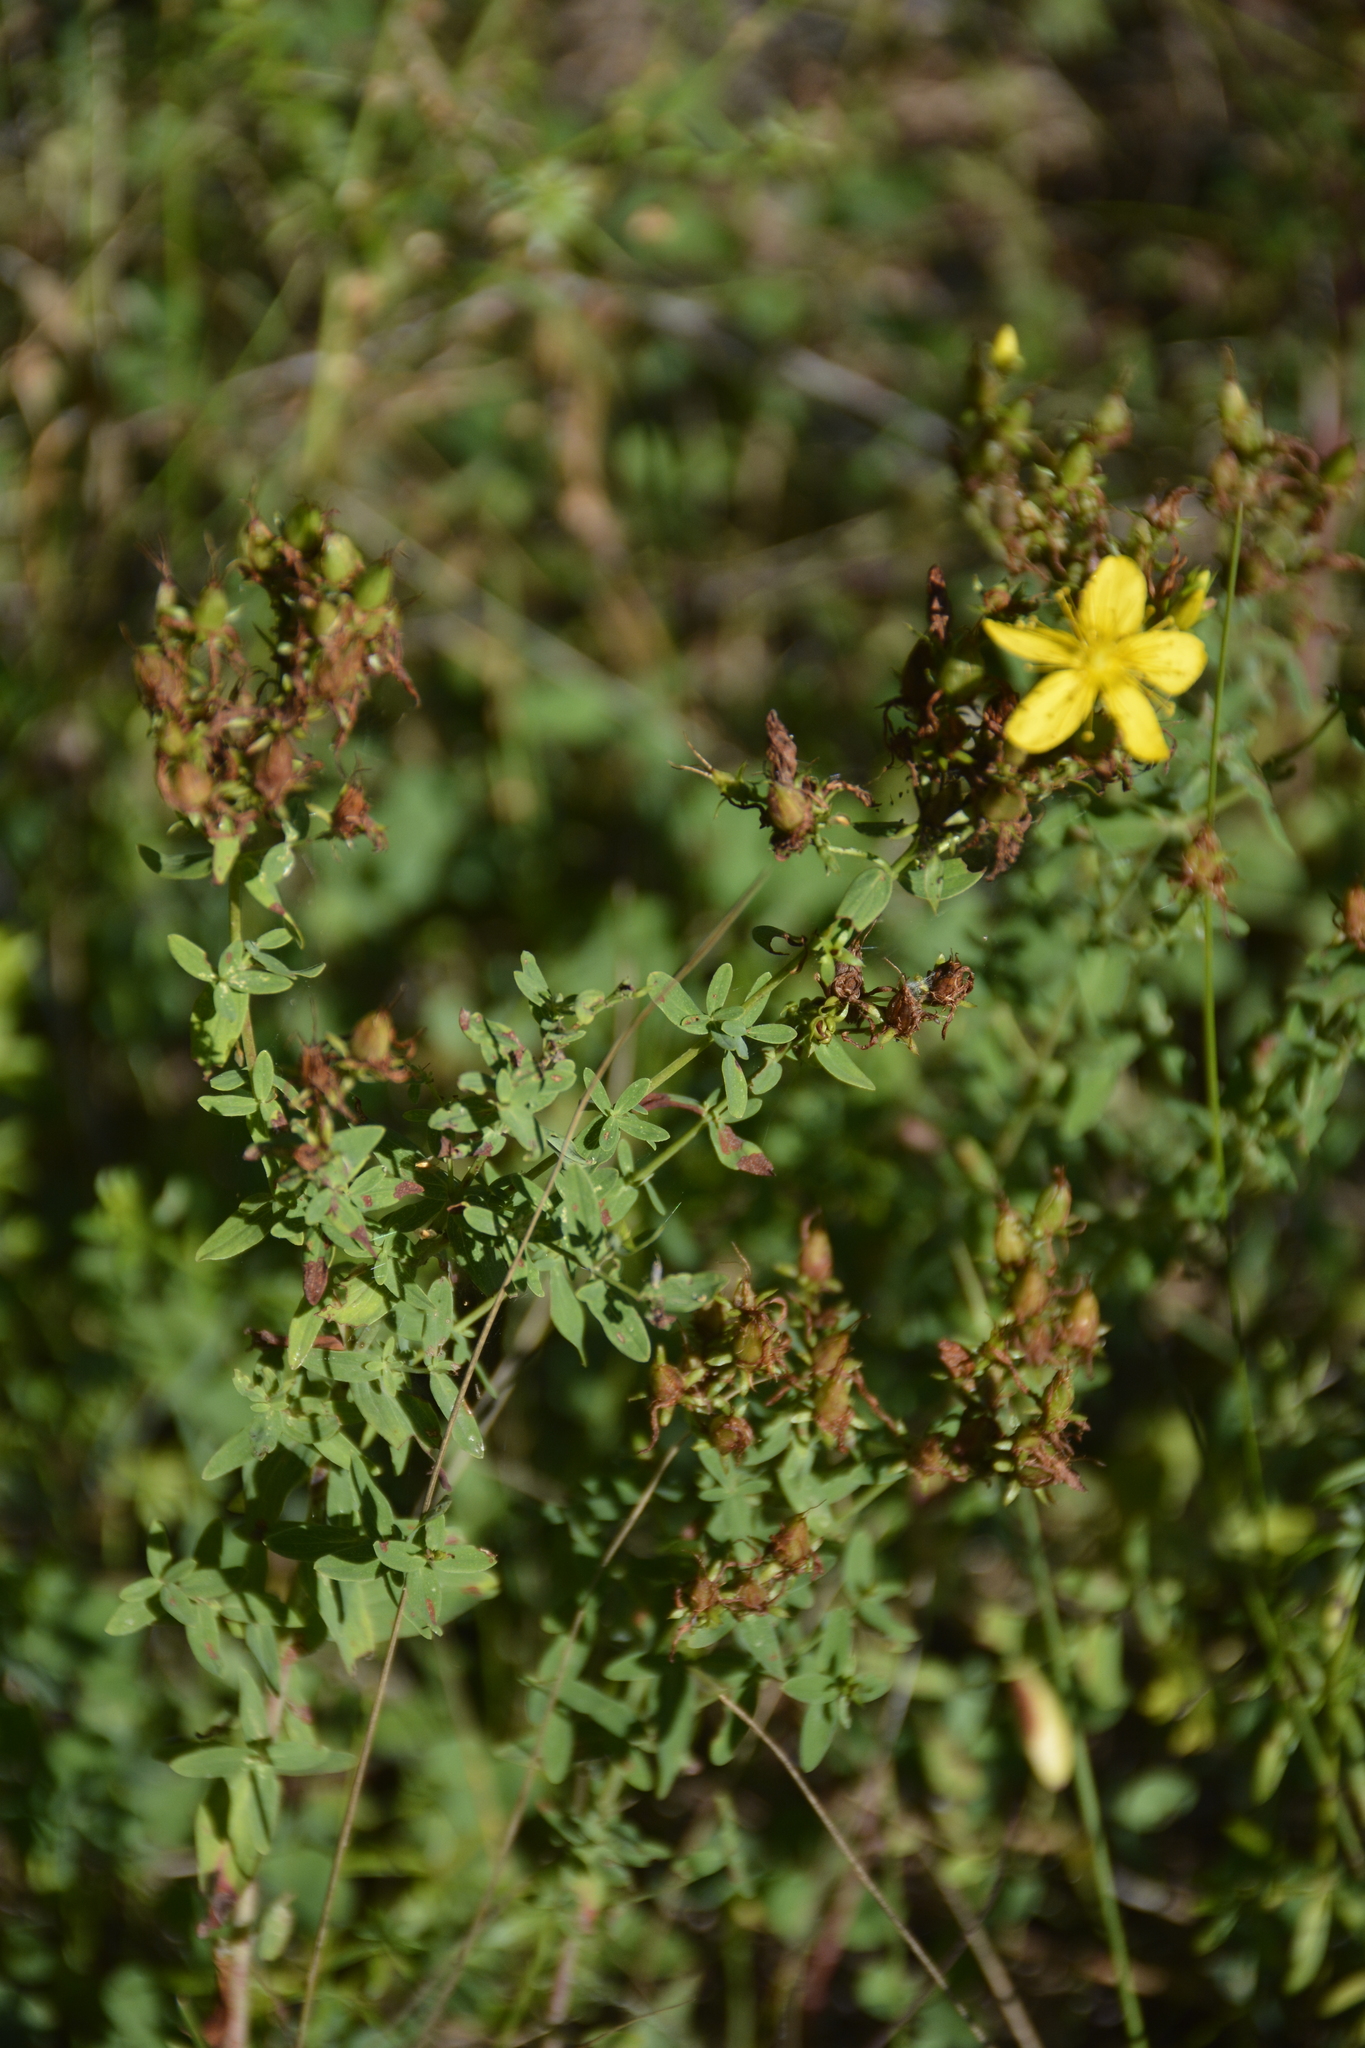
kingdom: Plantae
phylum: Tracheophyta
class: Magnoliopsida
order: Malpighiales
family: Hypericaceae
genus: Hypericum
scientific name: Hypericum perforatum
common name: Common st. johnswort
